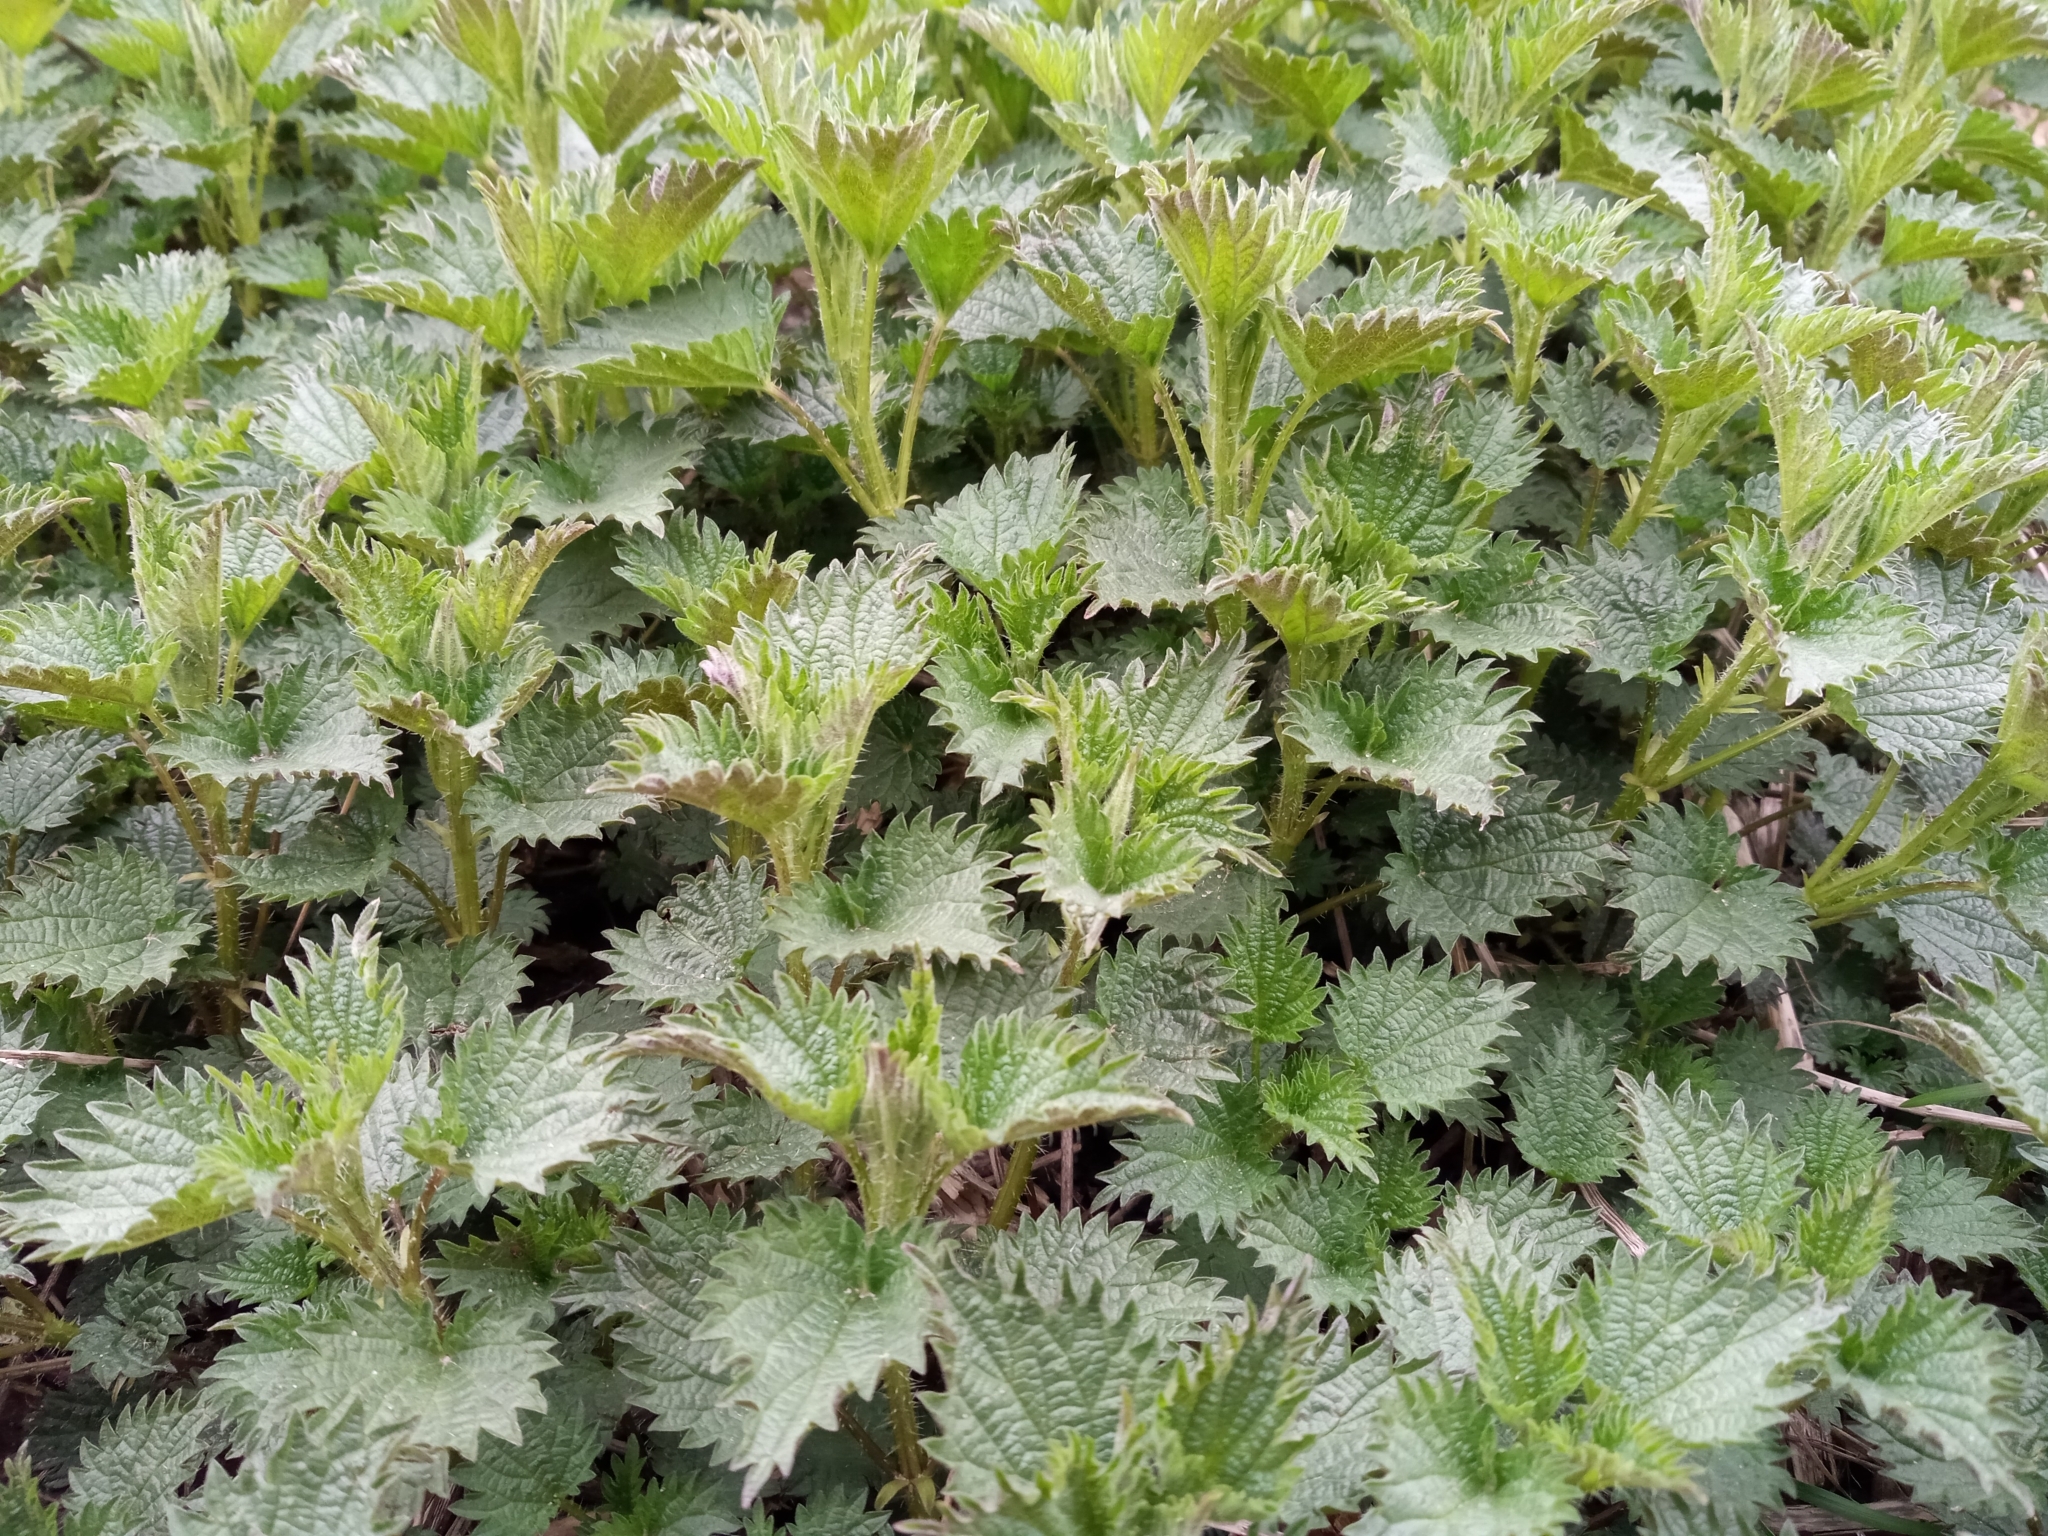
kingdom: Plantae
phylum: Tracheophyta
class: Magnoliopsida
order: Rosales
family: Urticaceae
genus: Urtica
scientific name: Urtica dioica
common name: Common nettle
